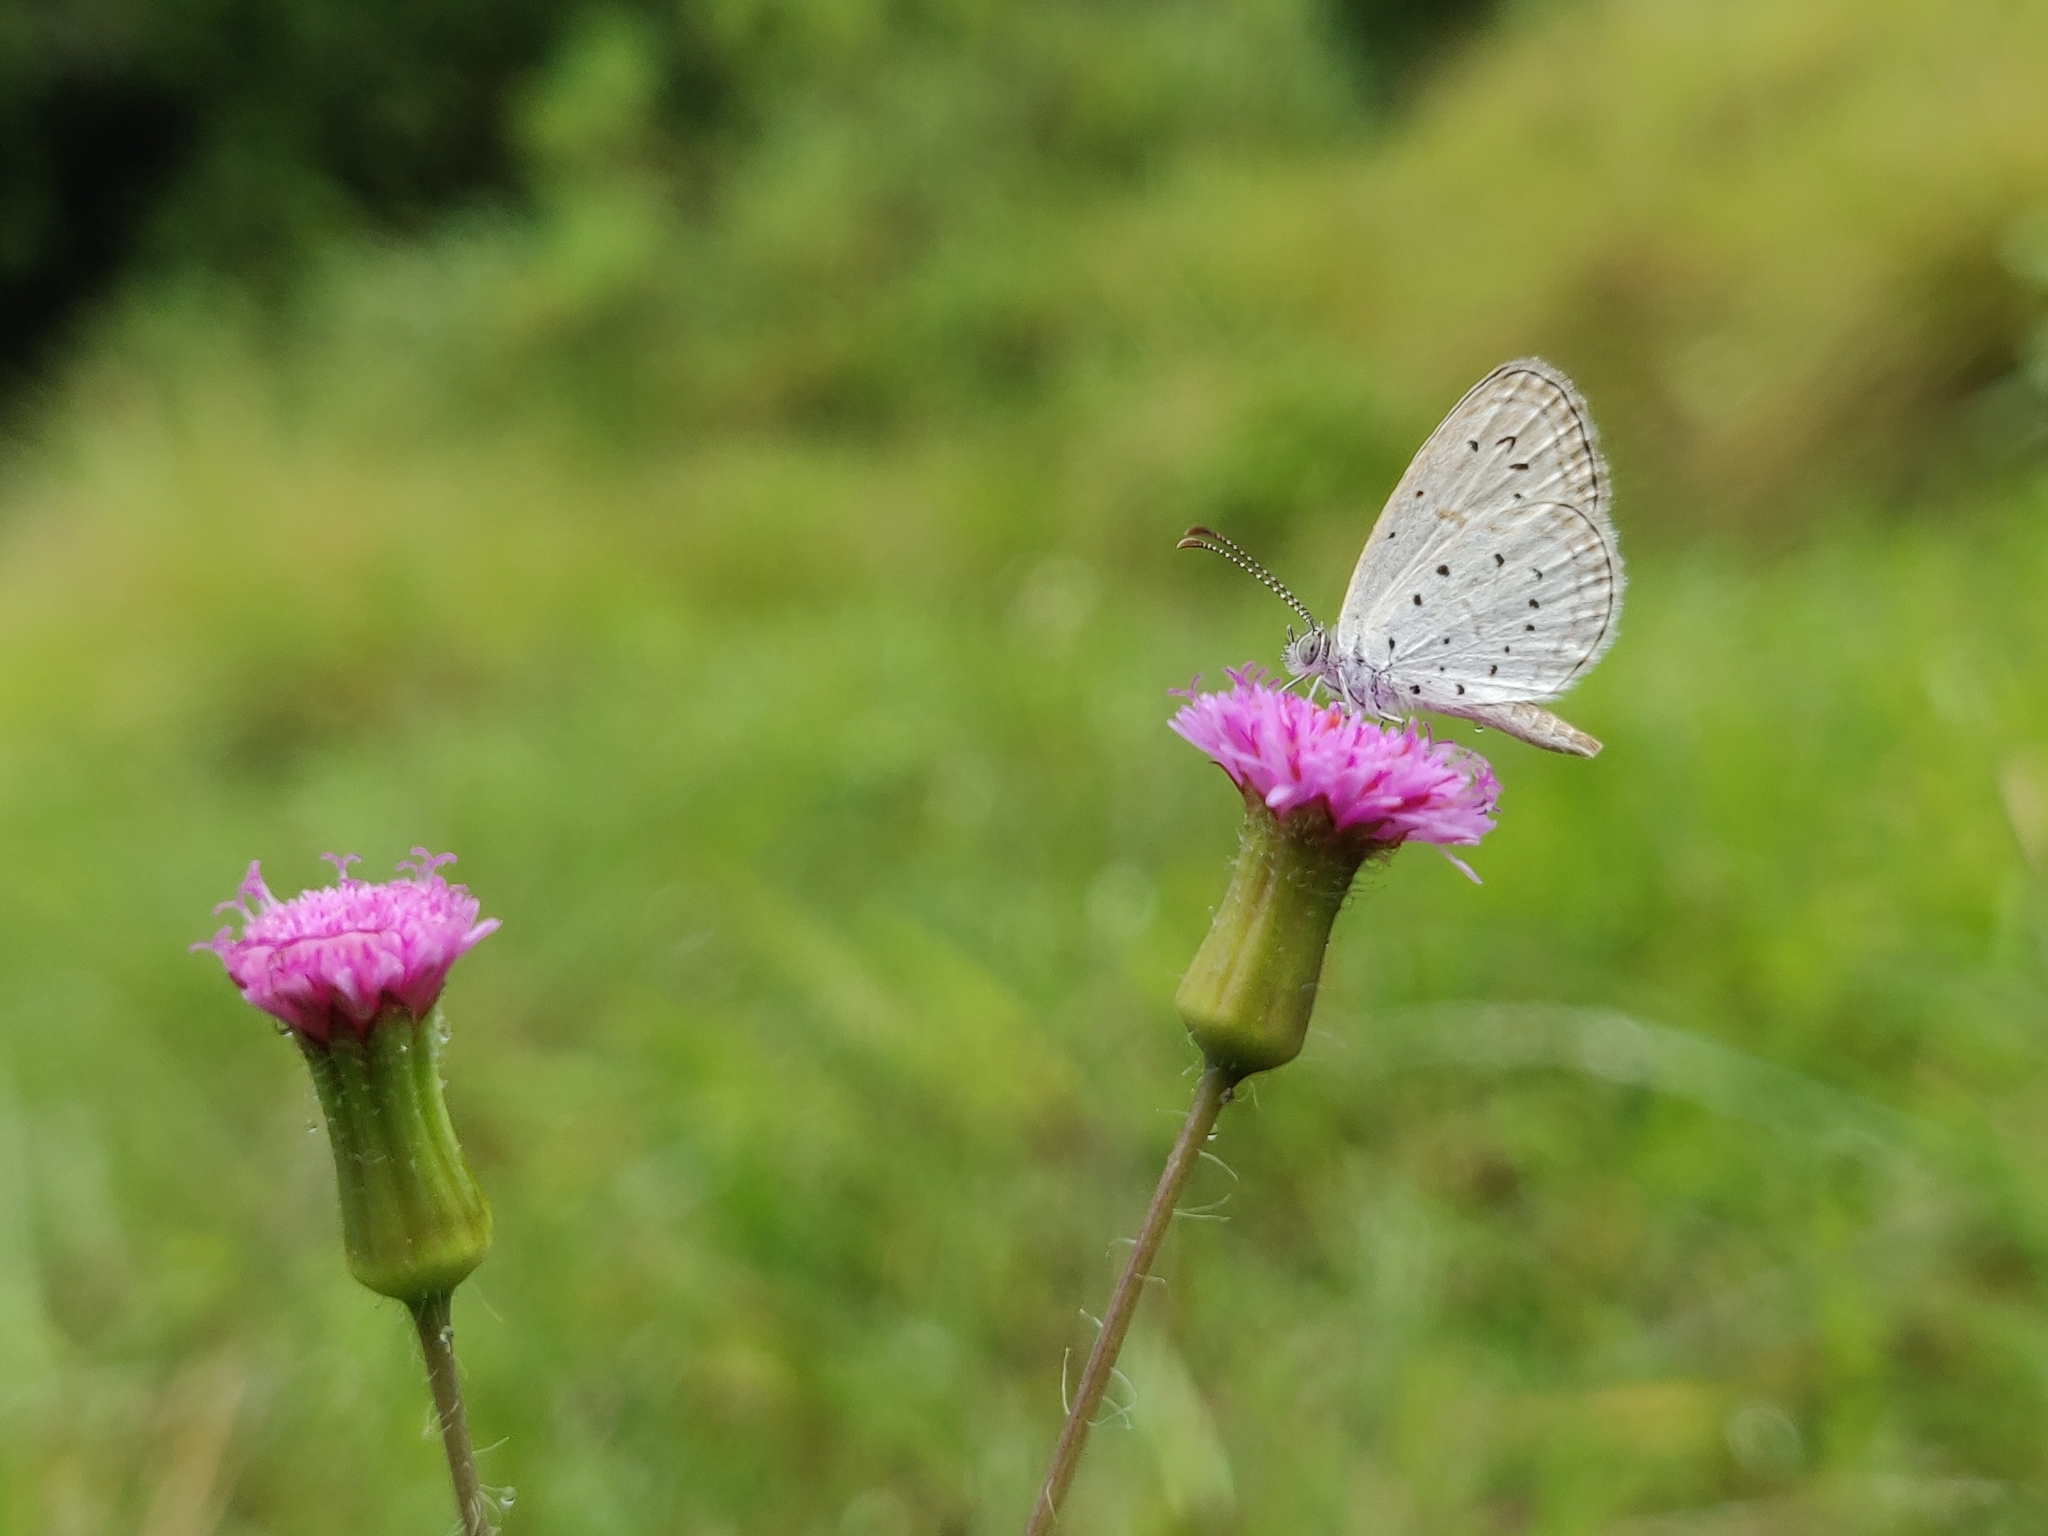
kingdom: Animalia
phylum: Arthropoda
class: Insecta
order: Lepidoptera
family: Lycaenidae
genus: Zizula
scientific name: Zizula hylax
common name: Gaika blue
